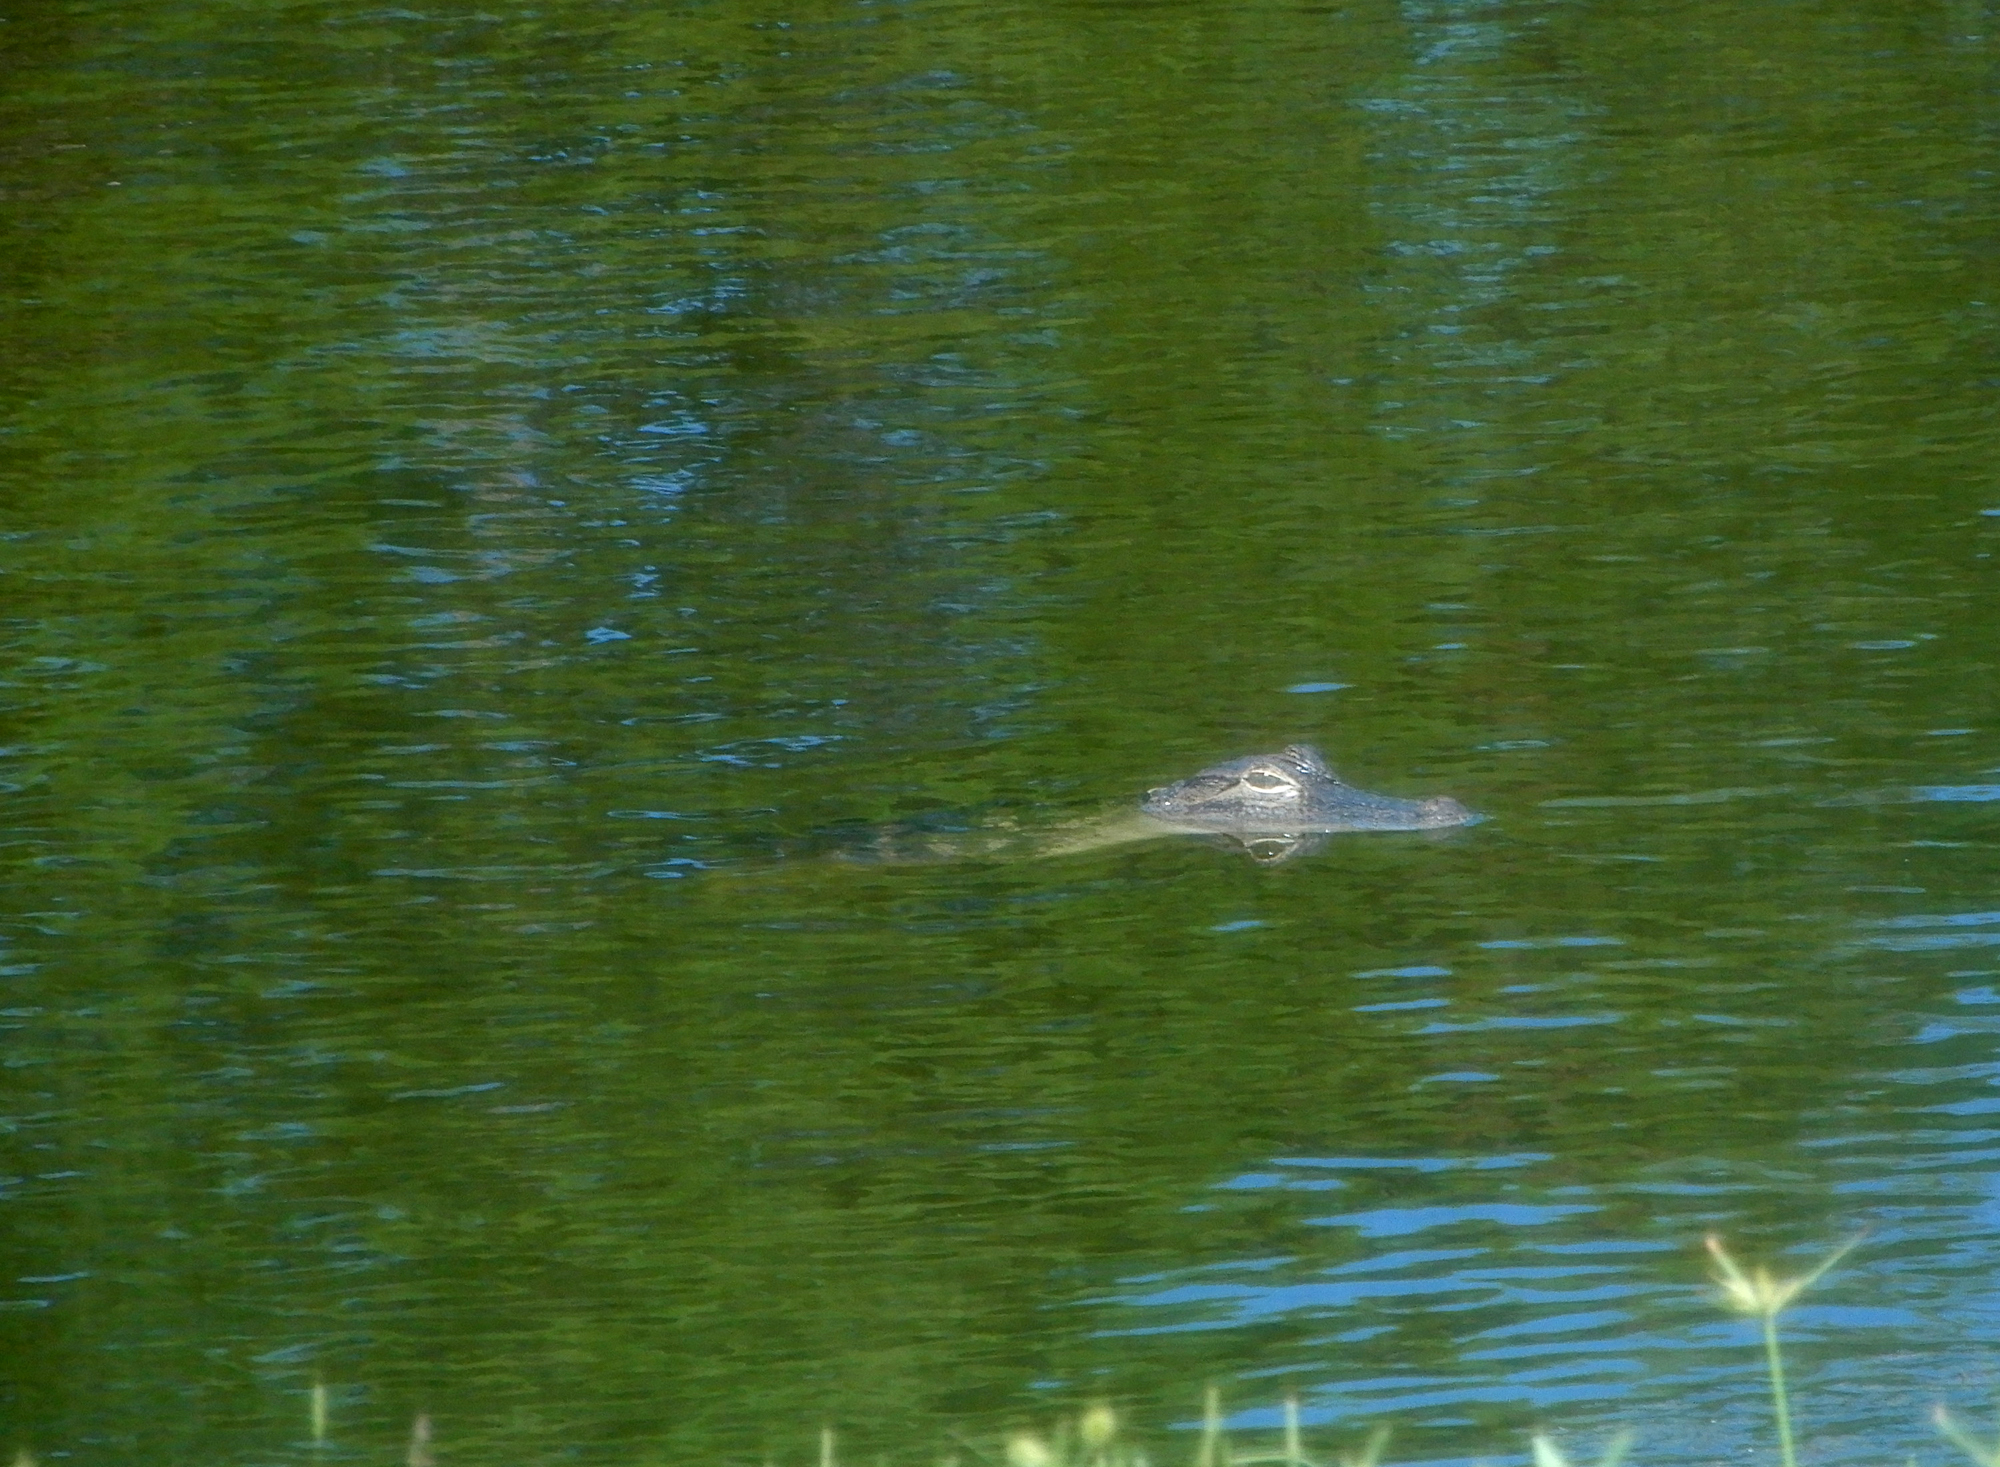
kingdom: Animalia
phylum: Chordata
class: Crocodylia
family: Alligatoridae
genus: Alligator
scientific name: Alligator mississippiensis
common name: American alligator
